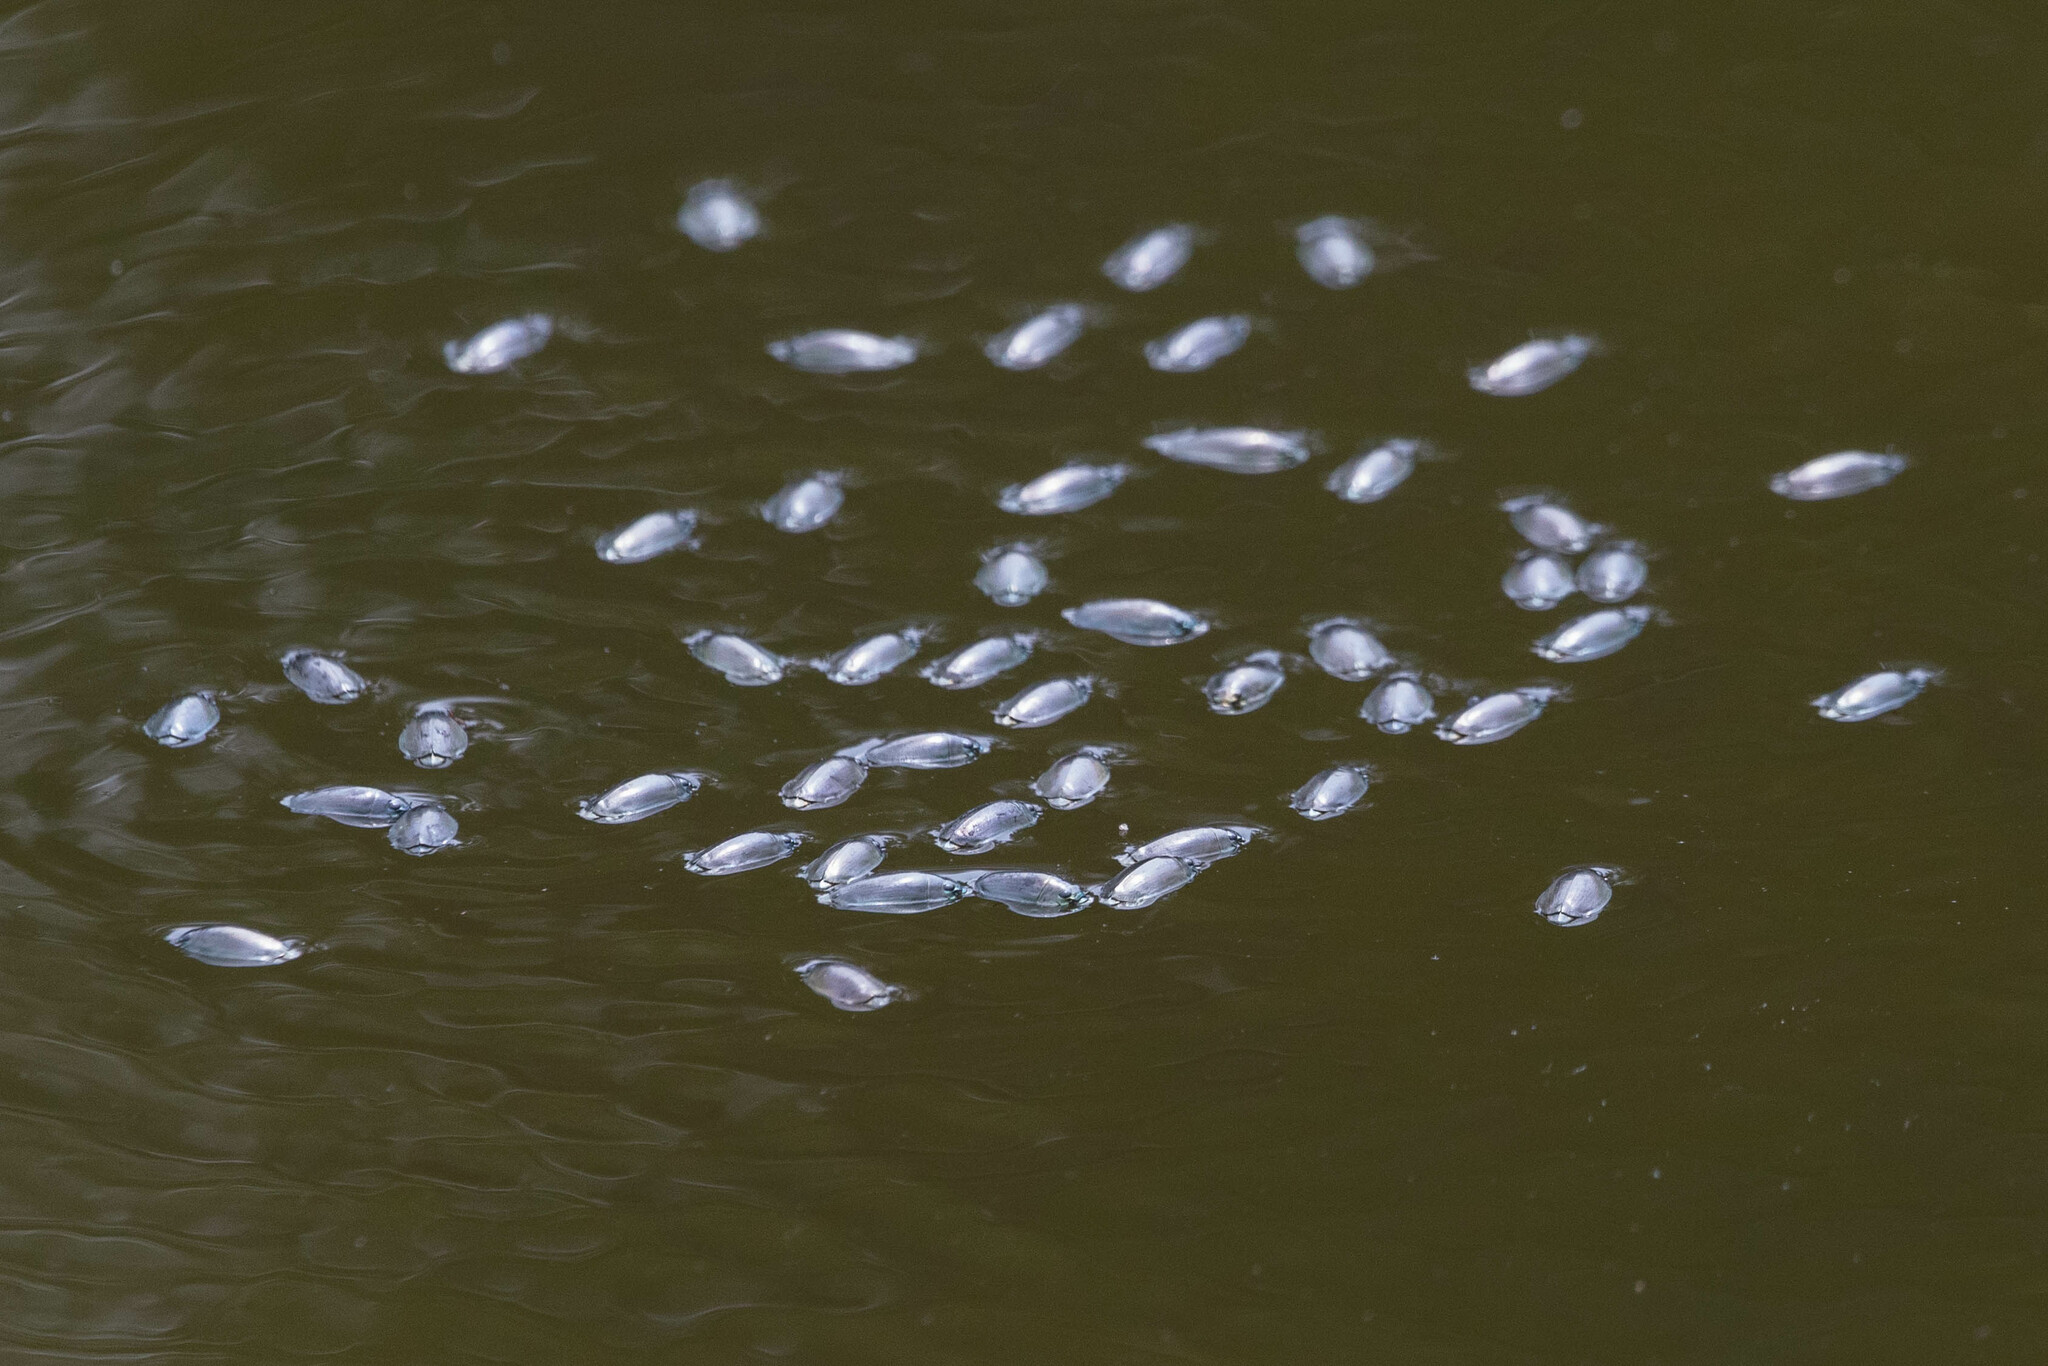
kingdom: Animalia
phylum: Arthropoda
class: Insecta
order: Coleoptera
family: Gyrinidae
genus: Dineutus
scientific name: Dineutus
